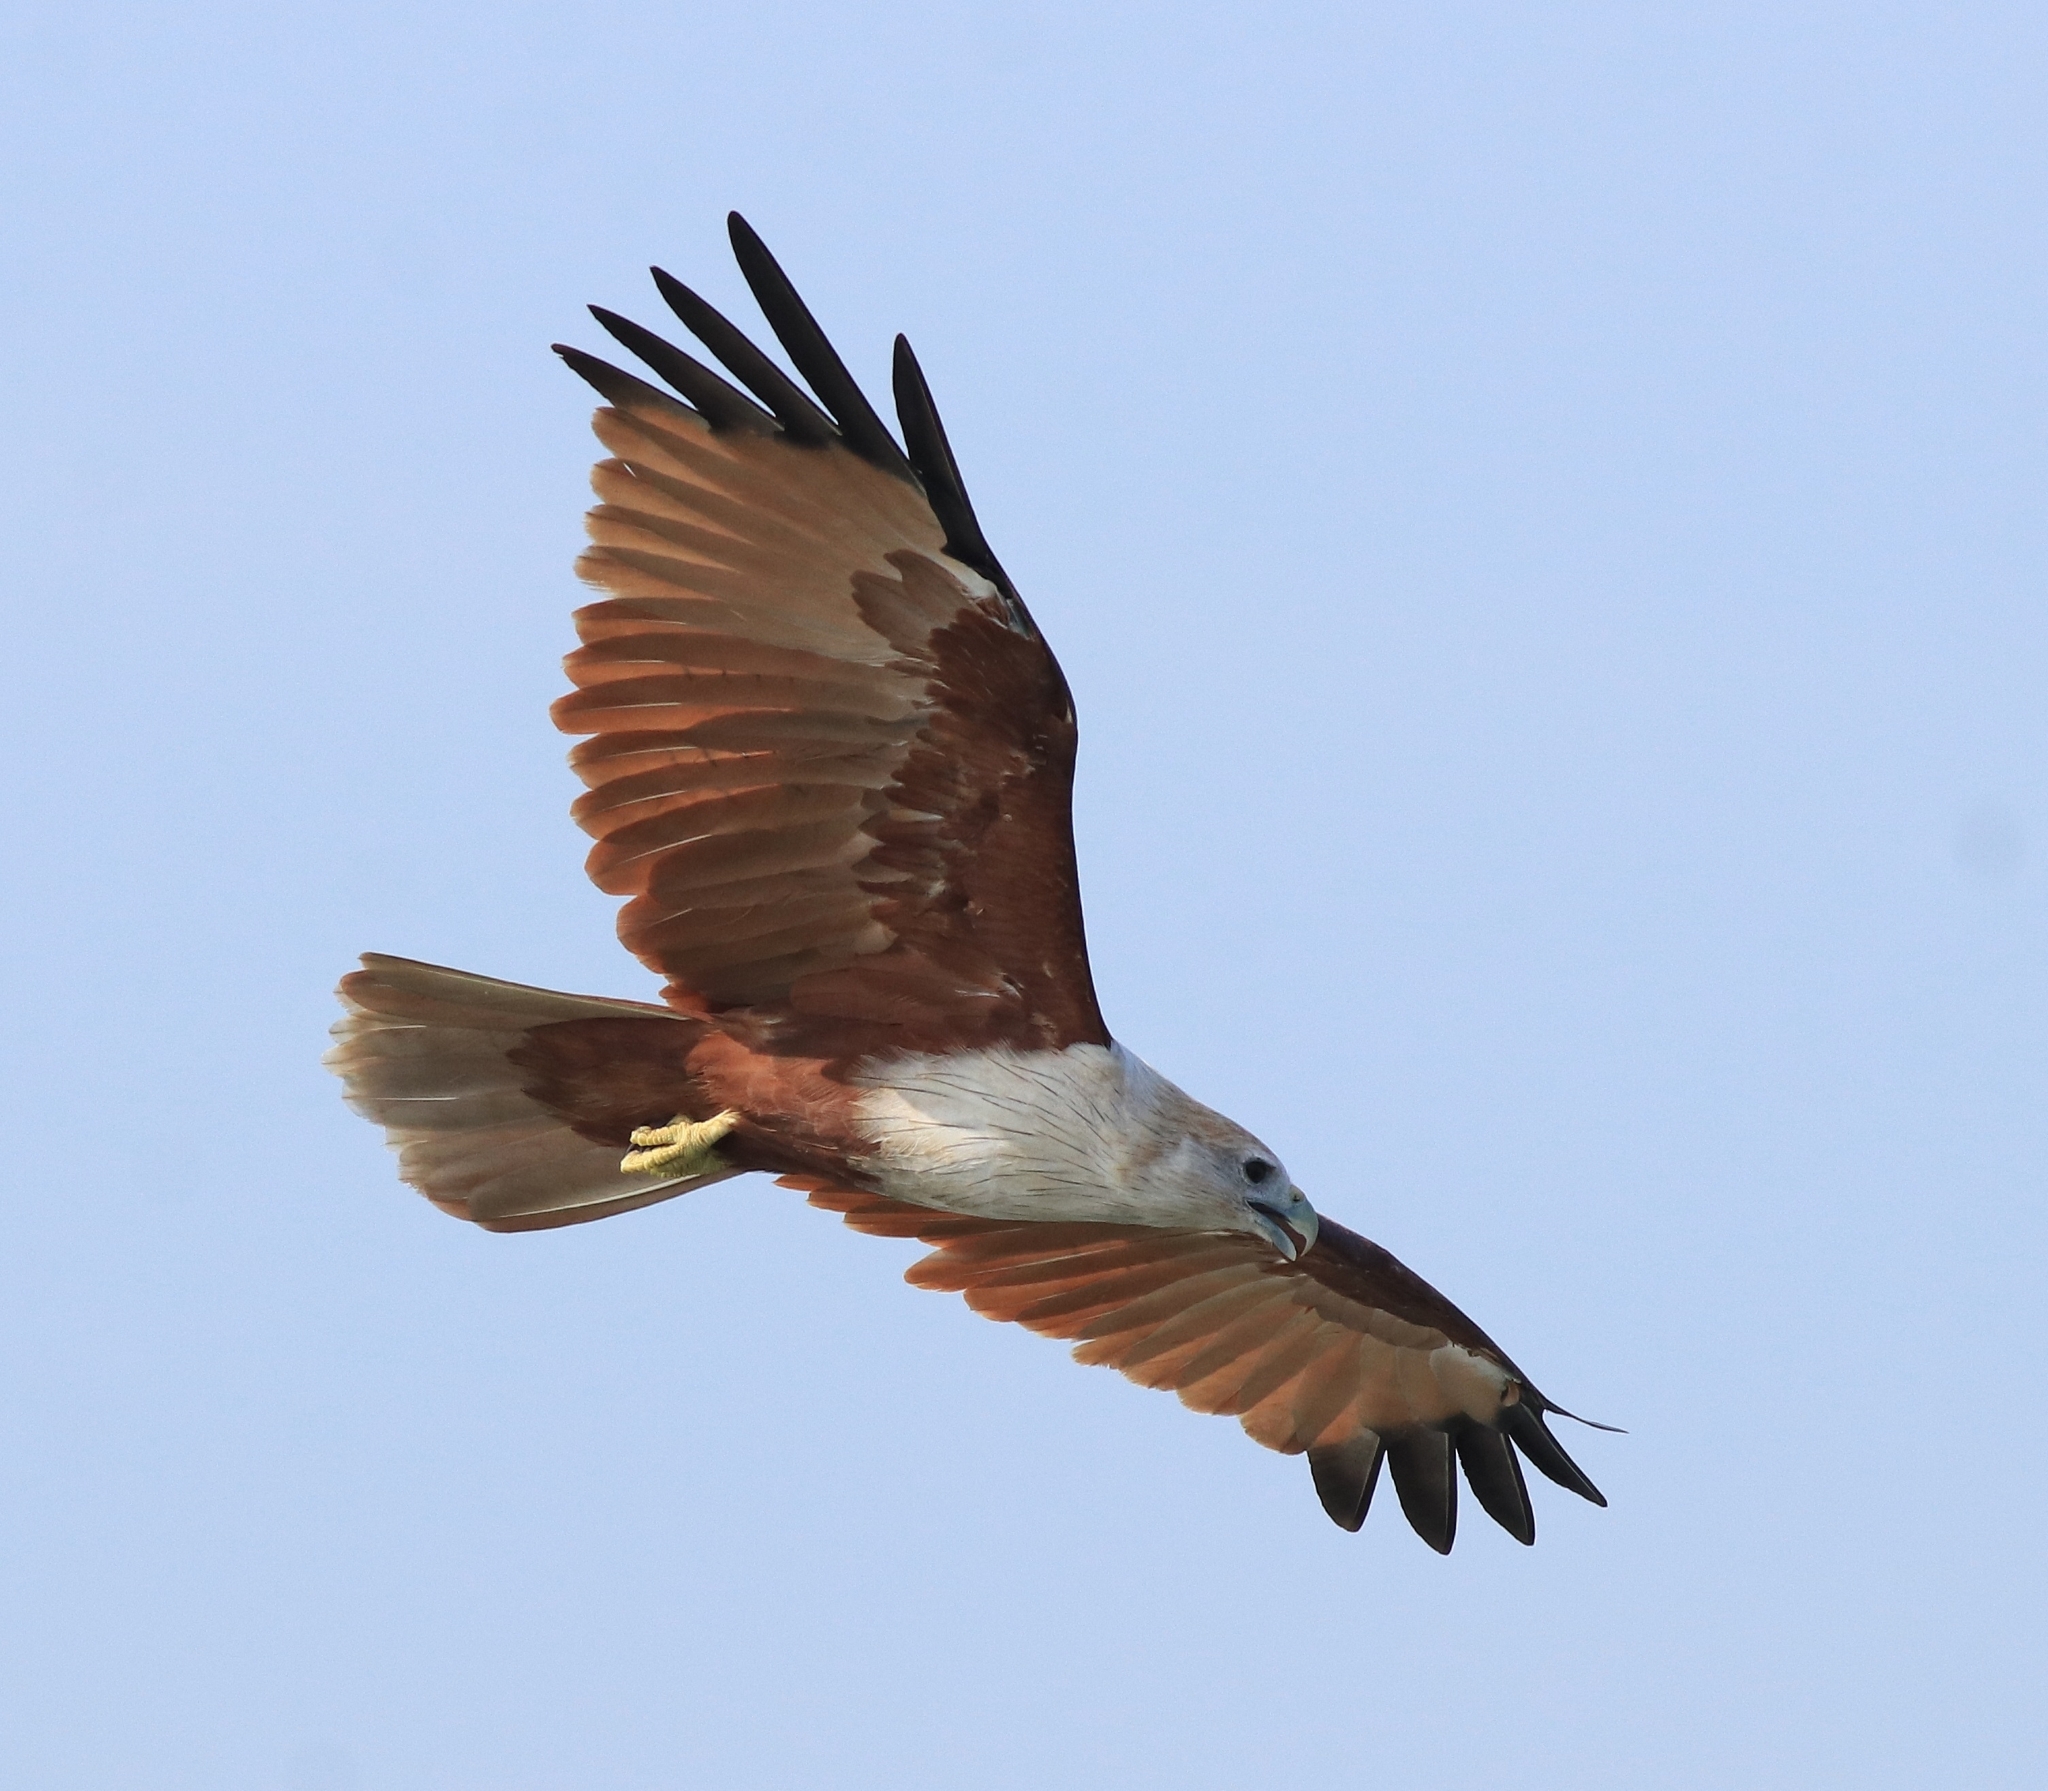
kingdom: Animalia
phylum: Chordata
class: Aves
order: Accipitriformes
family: Accipitridae
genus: Haliastur
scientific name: Haliastur indus
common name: Brahminy kite
